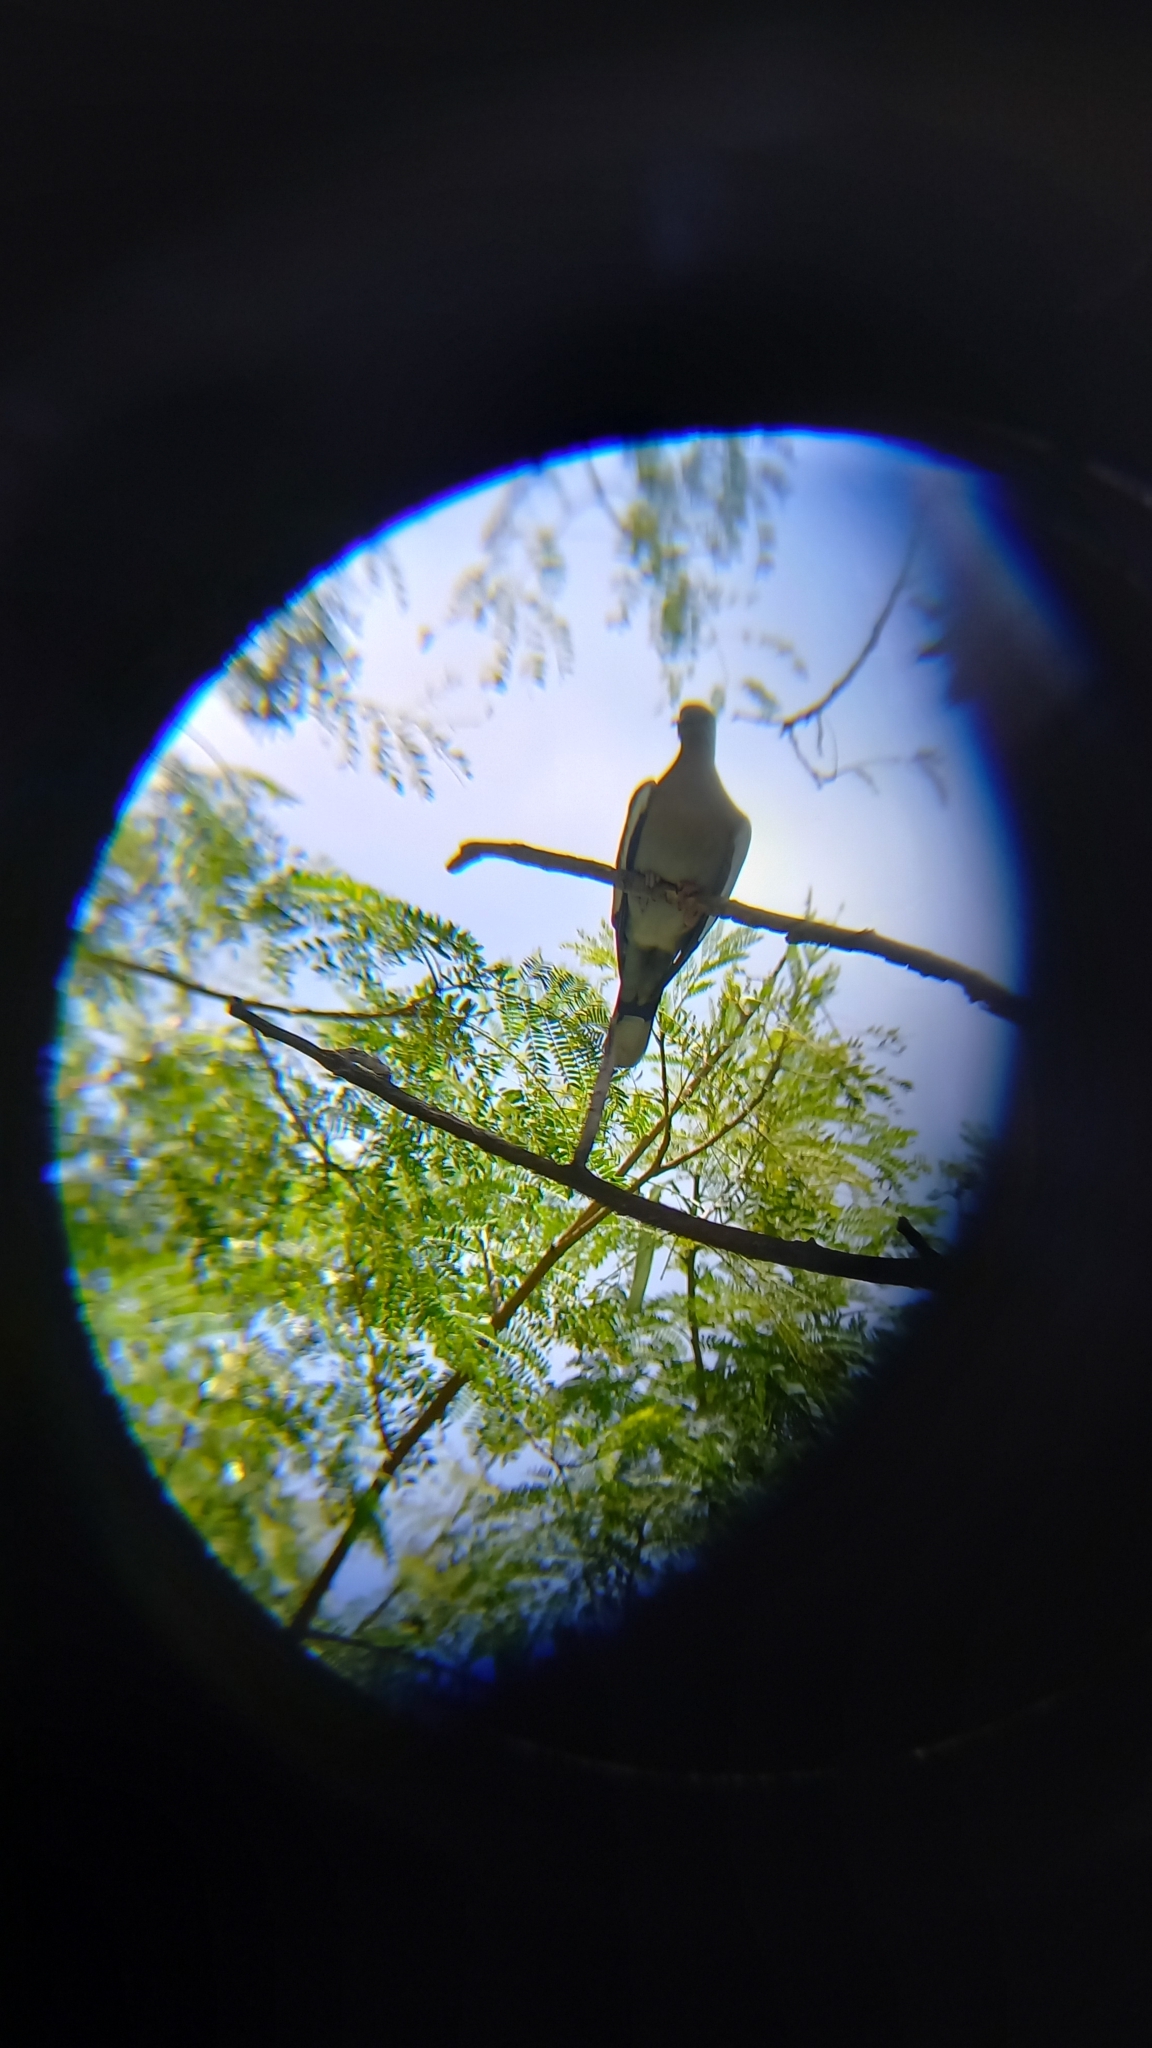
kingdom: Animalia
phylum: Chordata
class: Aves
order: Columbiformes
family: Columbidae
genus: Zenaida
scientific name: Zenaida asiatica
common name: White-winged dove
